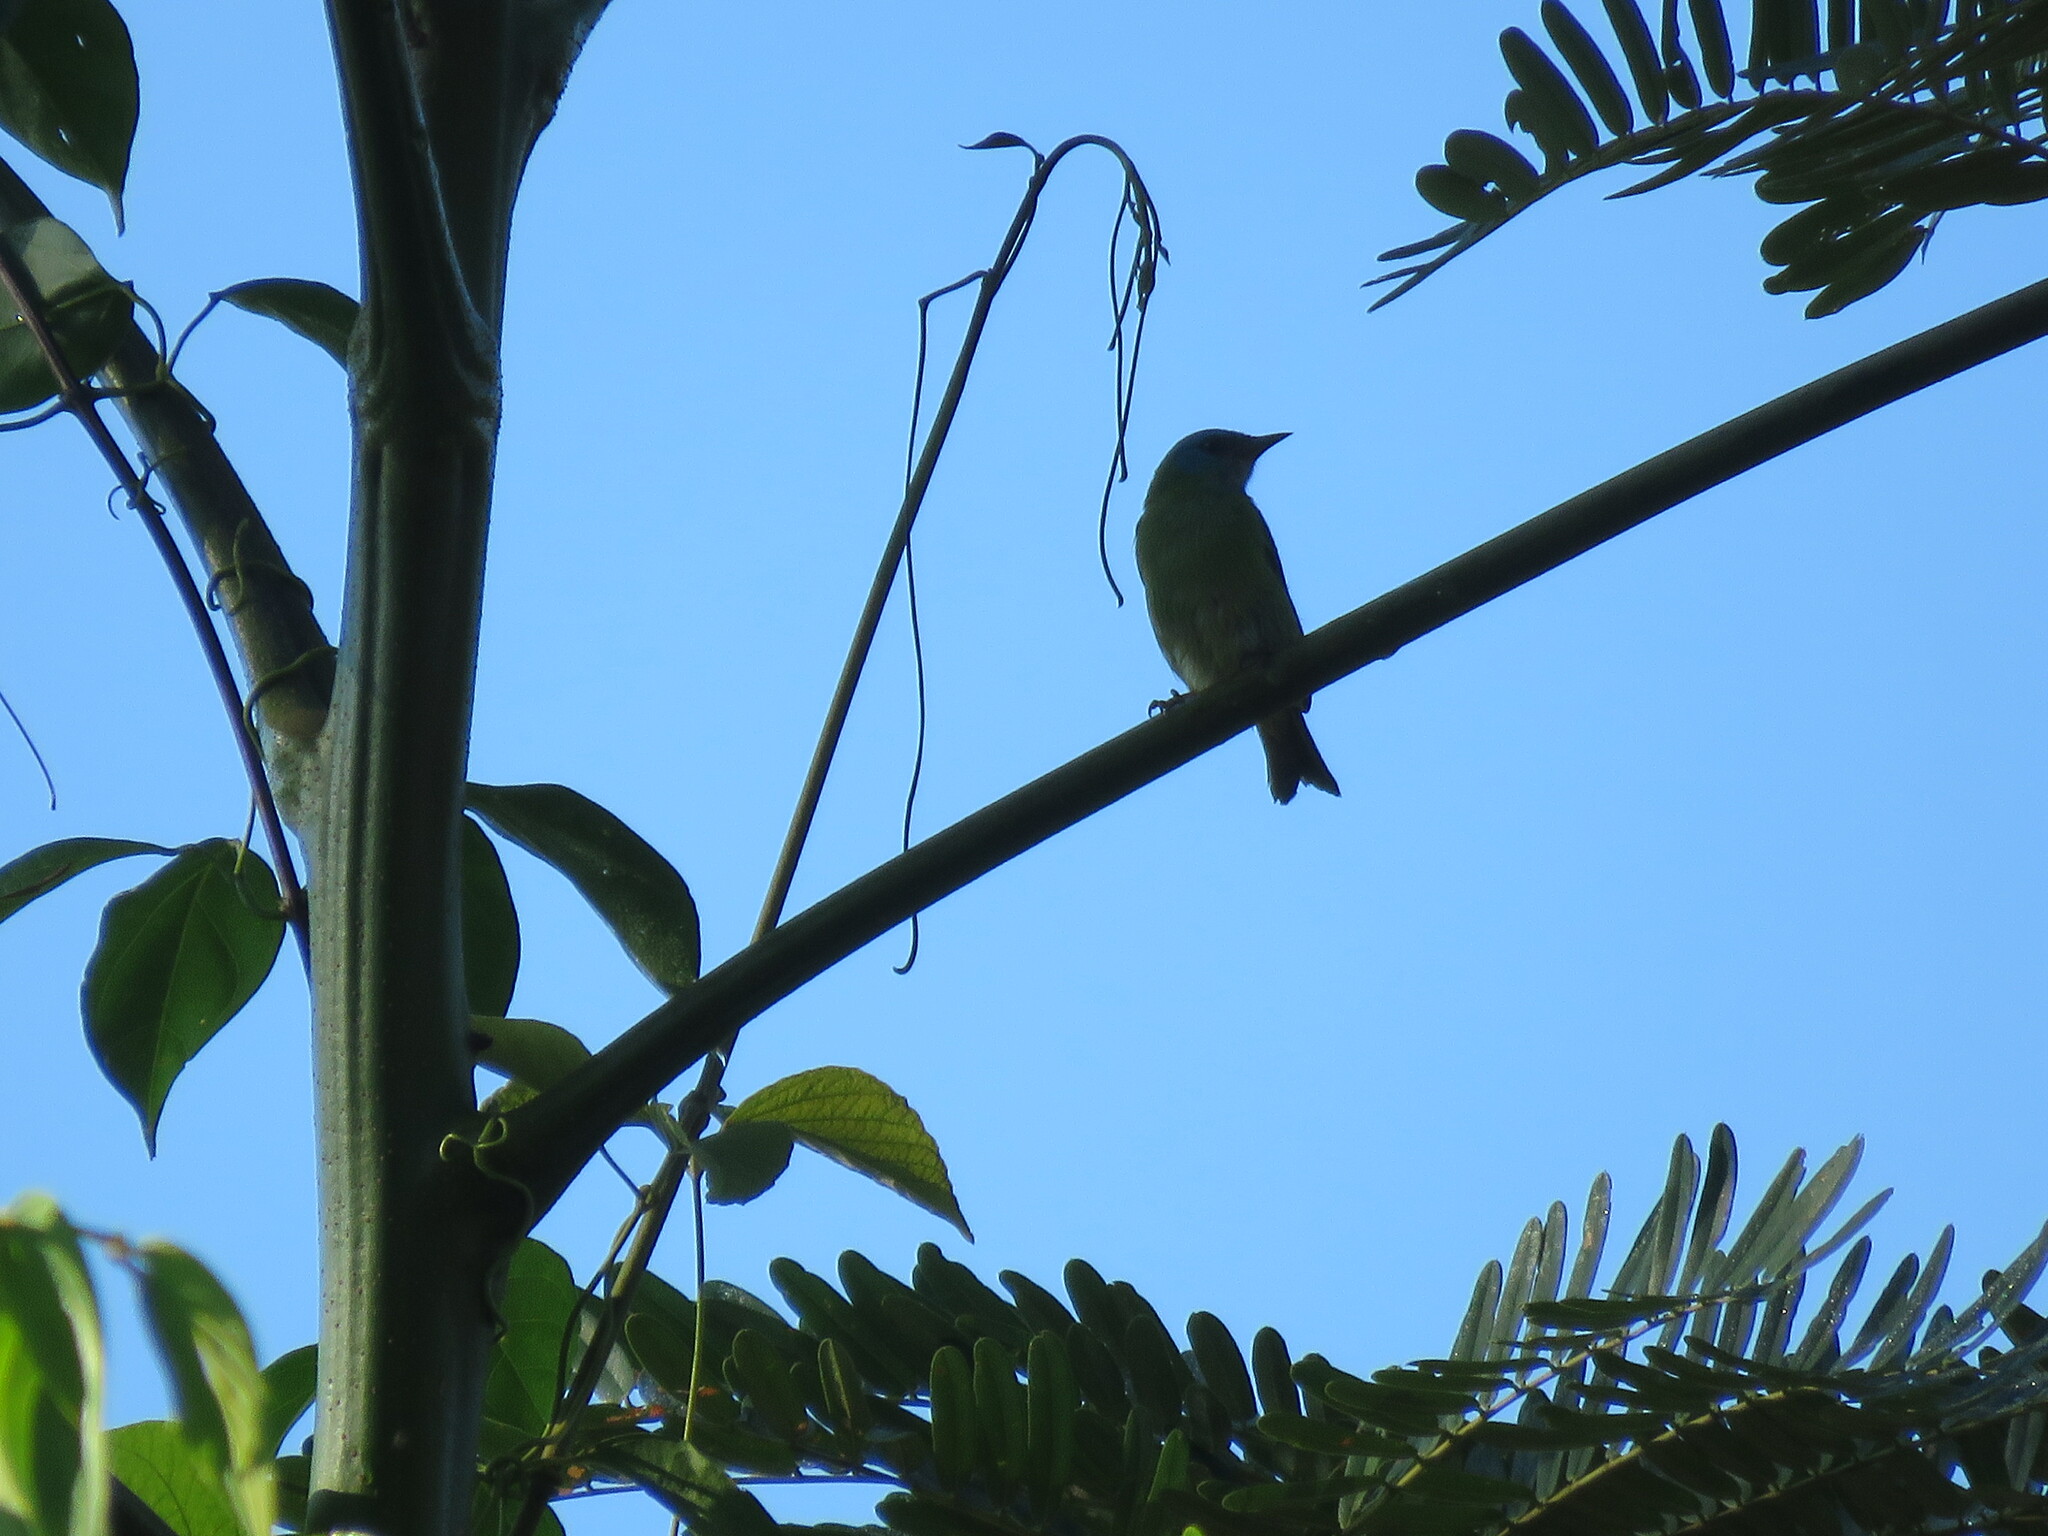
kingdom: Animalia
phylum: Chordata
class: Aves
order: Passeriformes
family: Thraupidae
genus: Dacnis
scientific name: Dacnis cayana
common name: Blue dacnis
